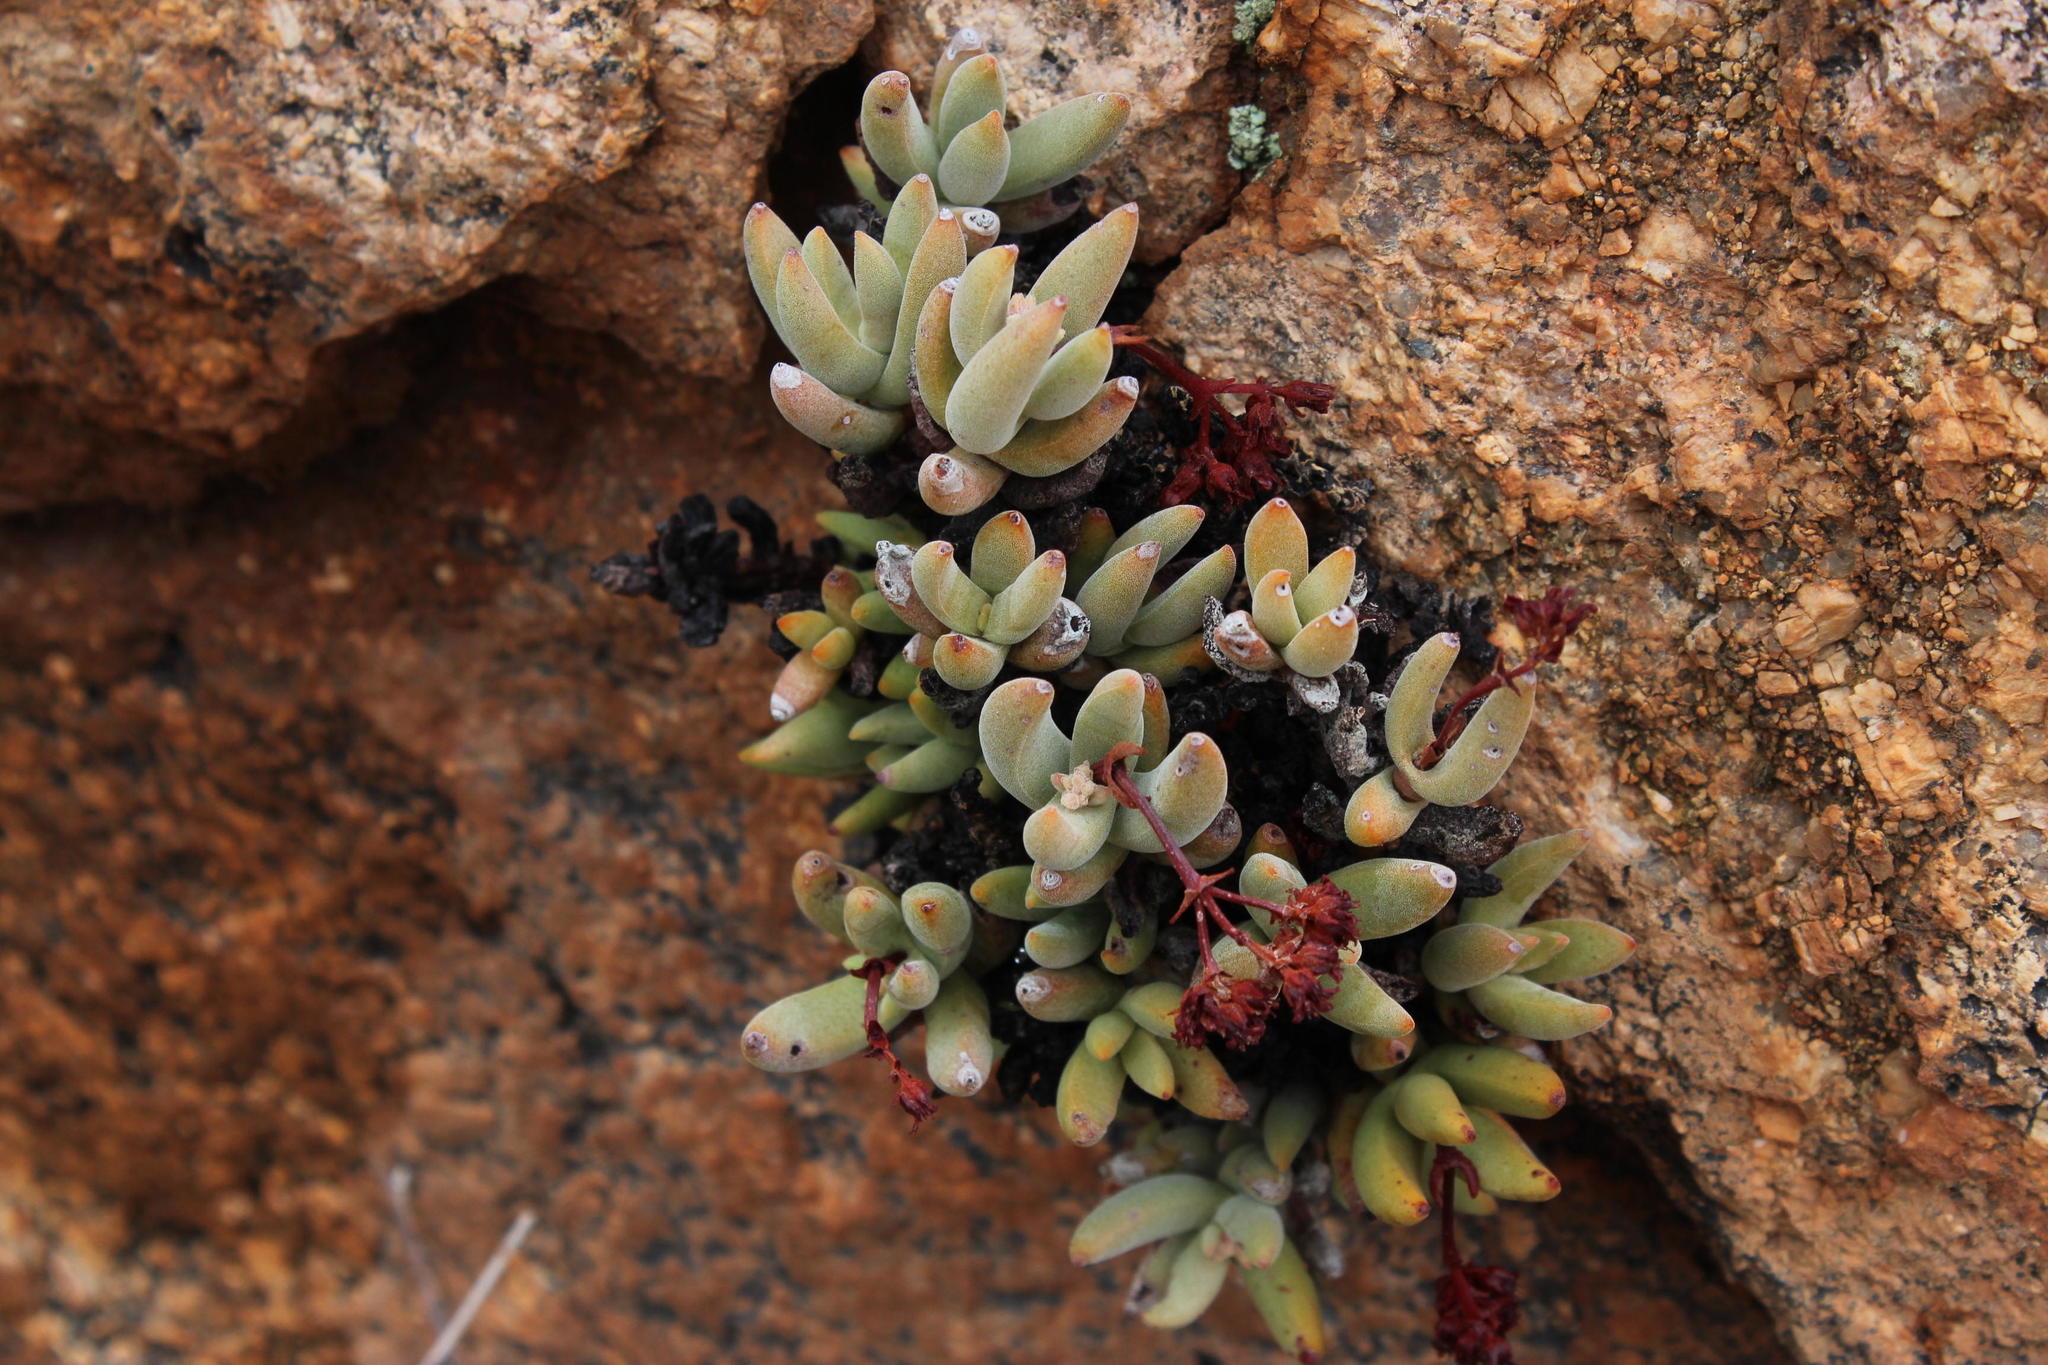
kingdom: Plantae
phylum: Tracheophyta
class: Magnoliopsida
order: Saxifragales
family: Crassulaceae
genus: Crassula
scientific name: Crassula garibina
